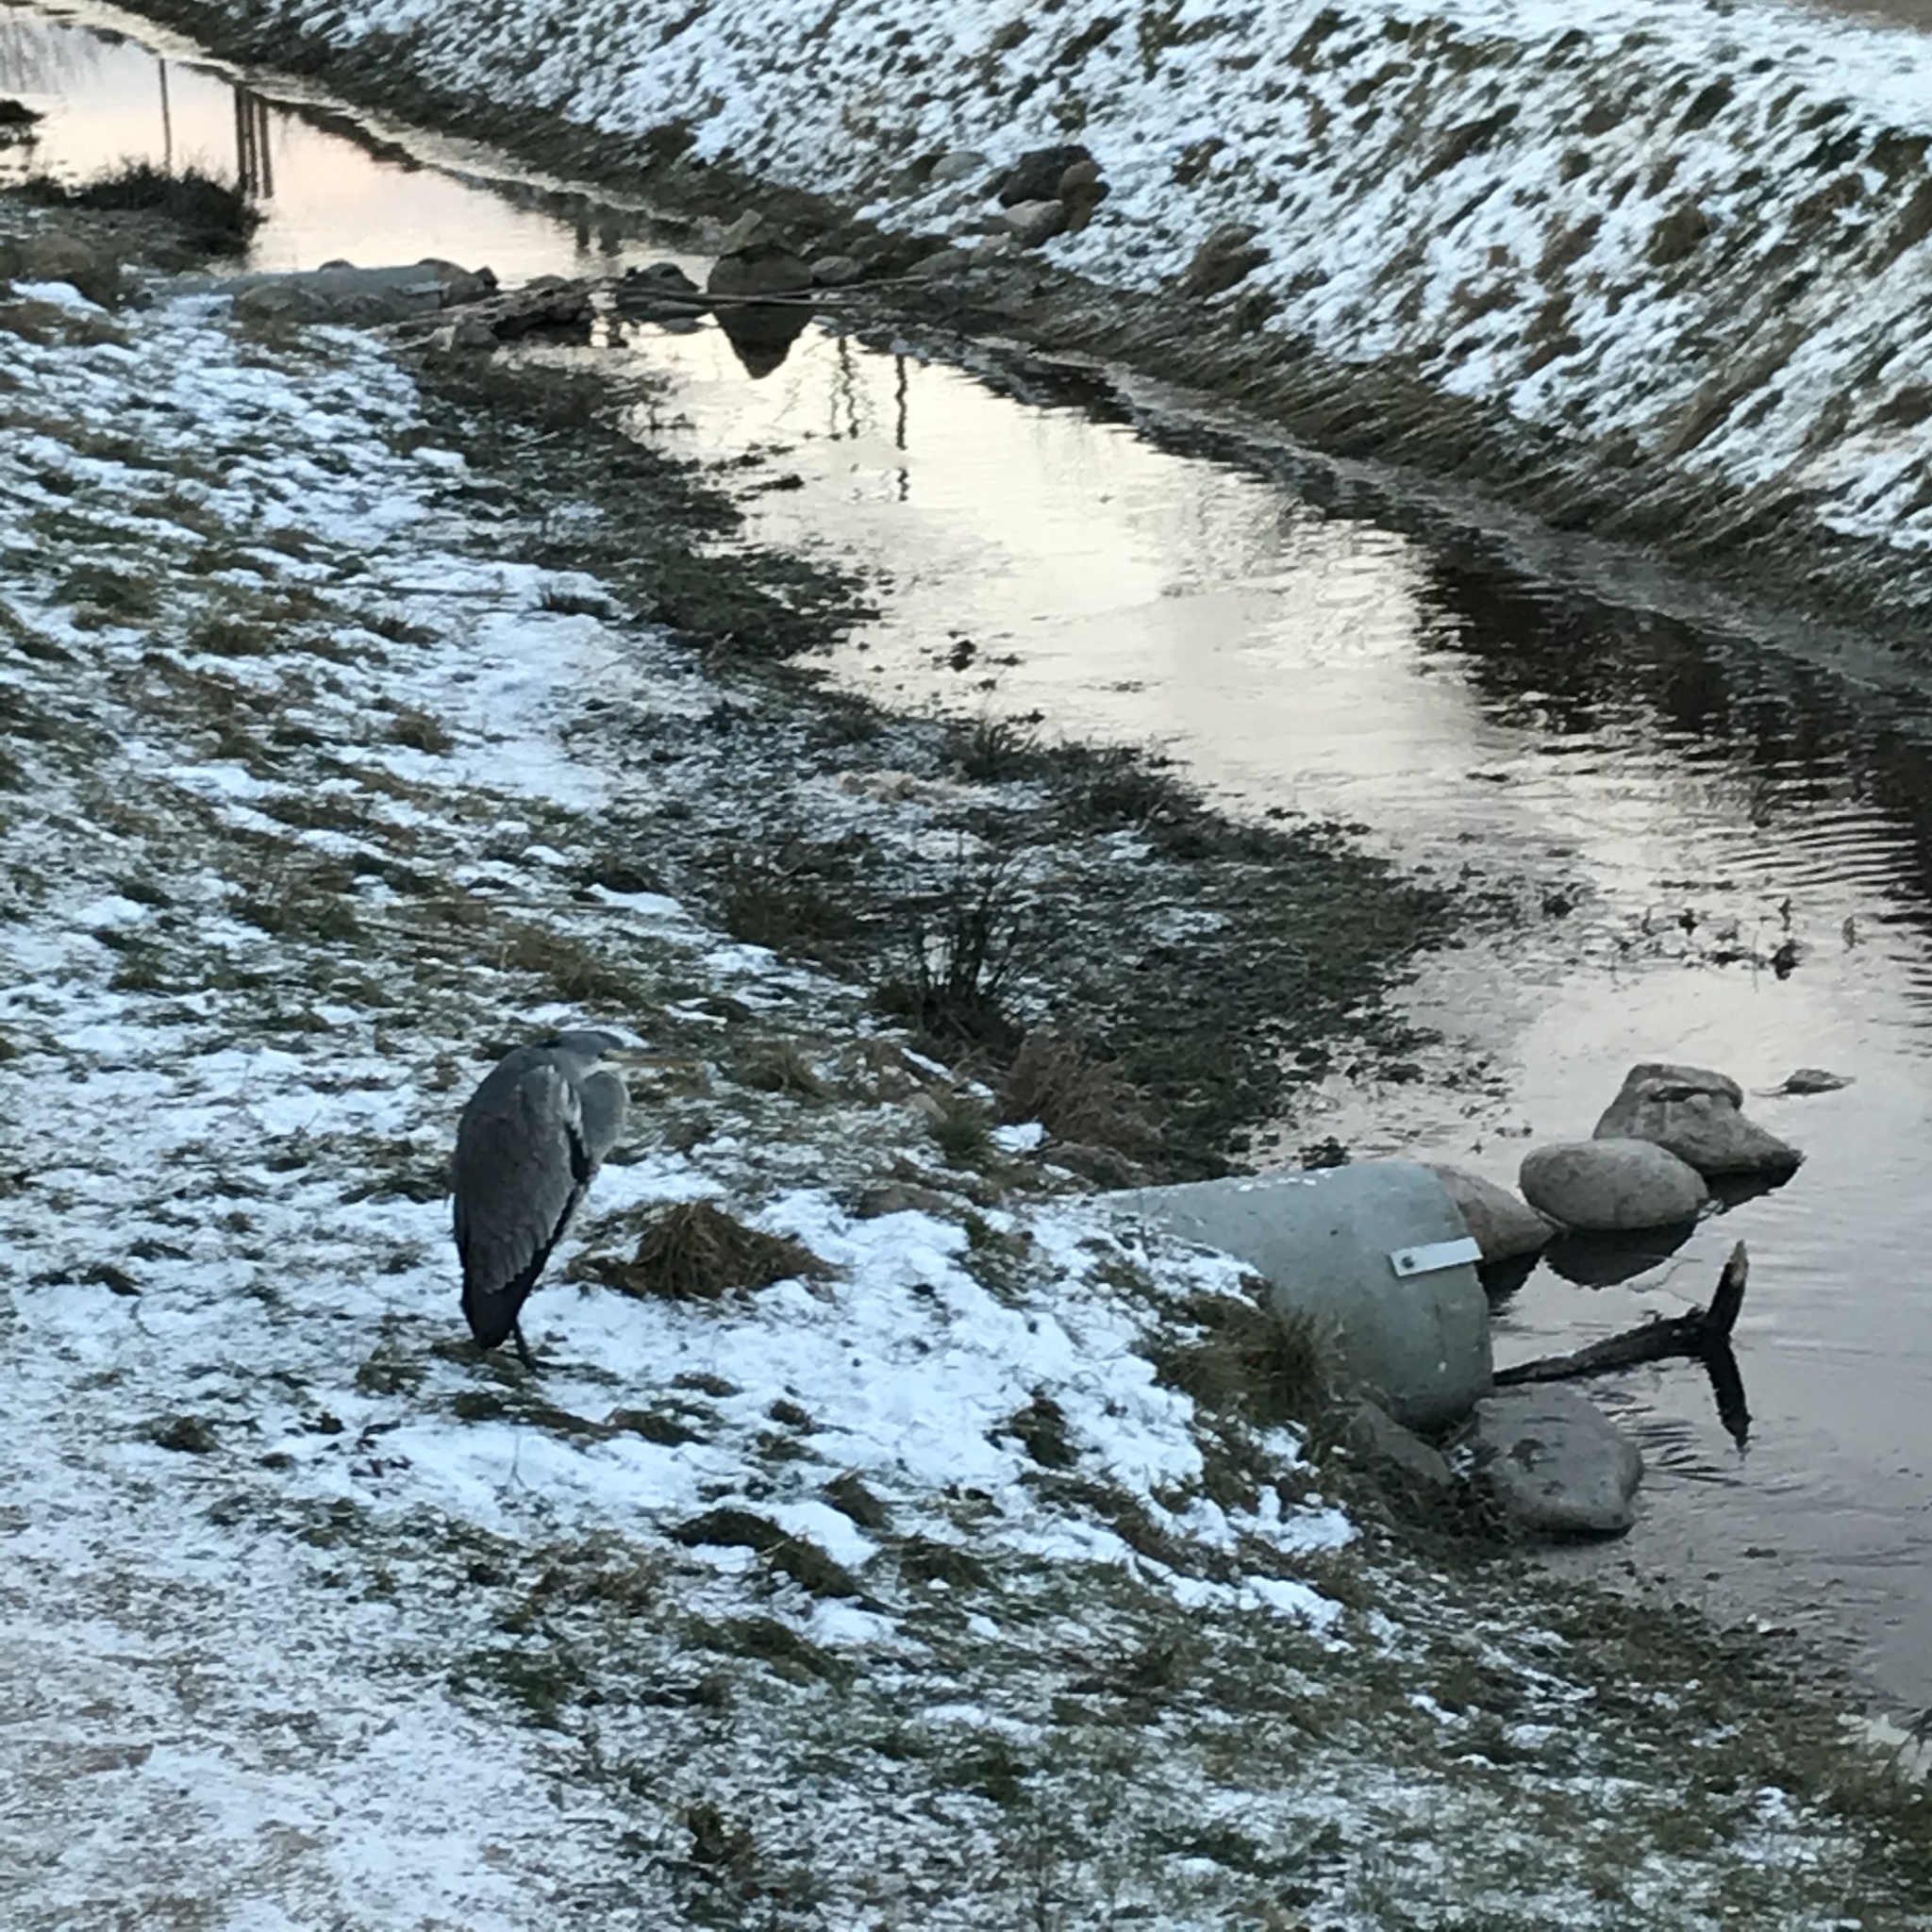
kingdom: Animalia
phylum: Chordata
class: Aves
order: Pelecaniformes
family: Ardeidae
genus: Ardea
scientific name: Ardea cinerea
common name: Grey heron
